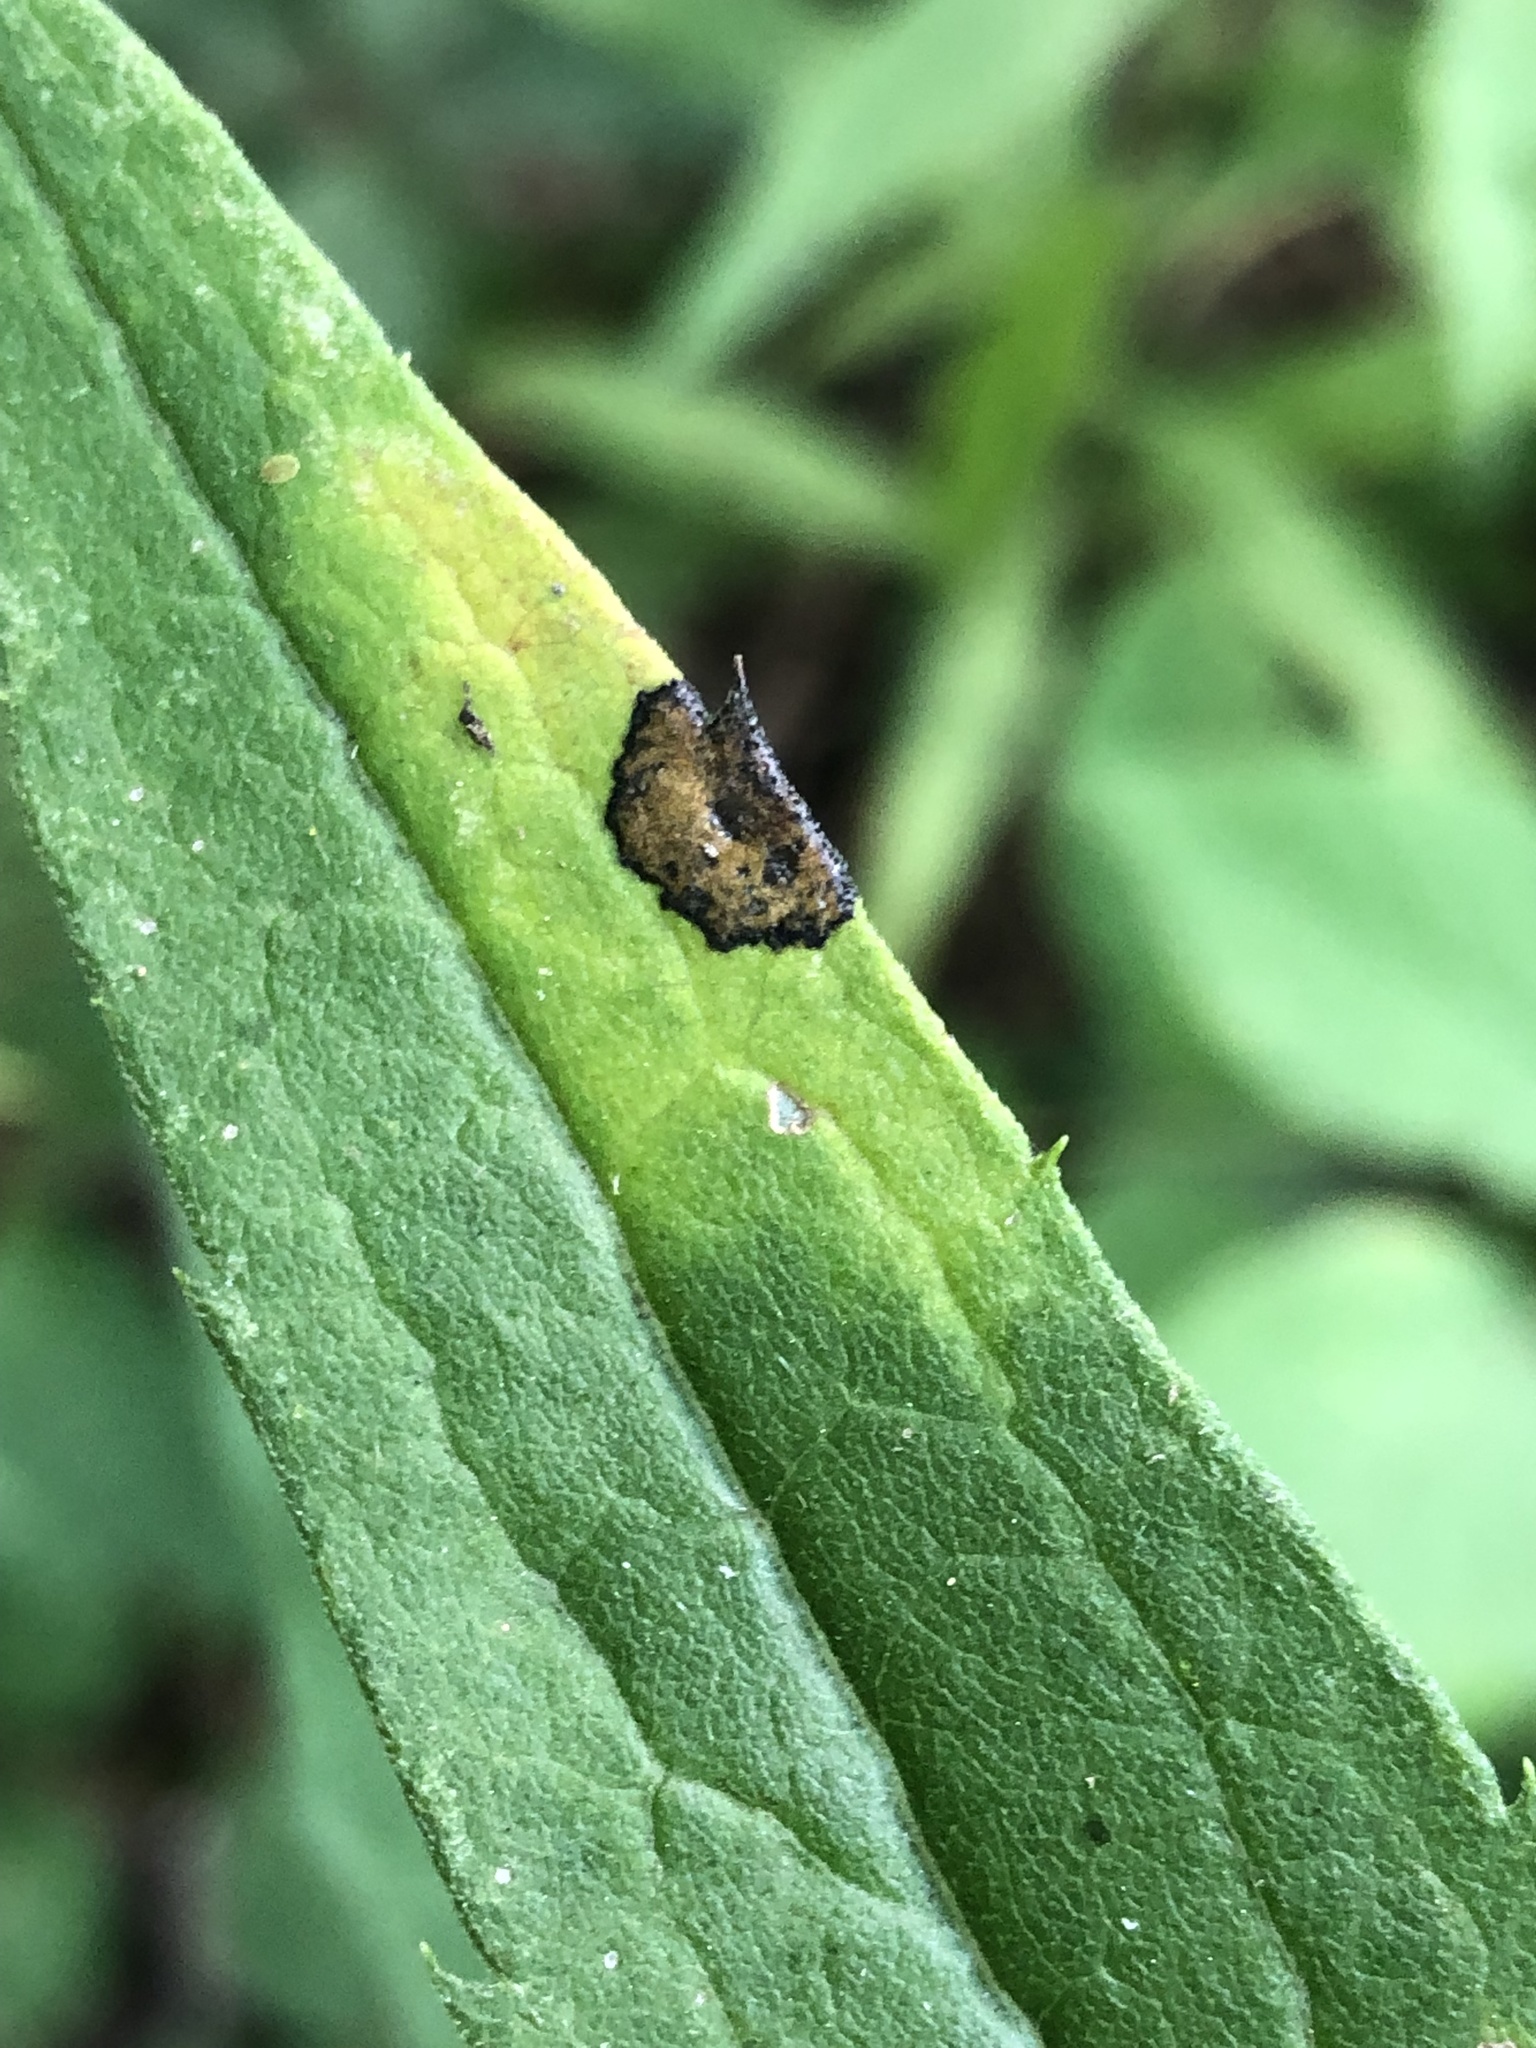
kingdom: Animalia
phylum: Arthropoda
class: Insecta
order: Diptera
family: Cecidomyiidae
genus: Asteromyia
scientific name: Asteromyia carbonifera
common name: Carbonifera goldenrod gall midge
